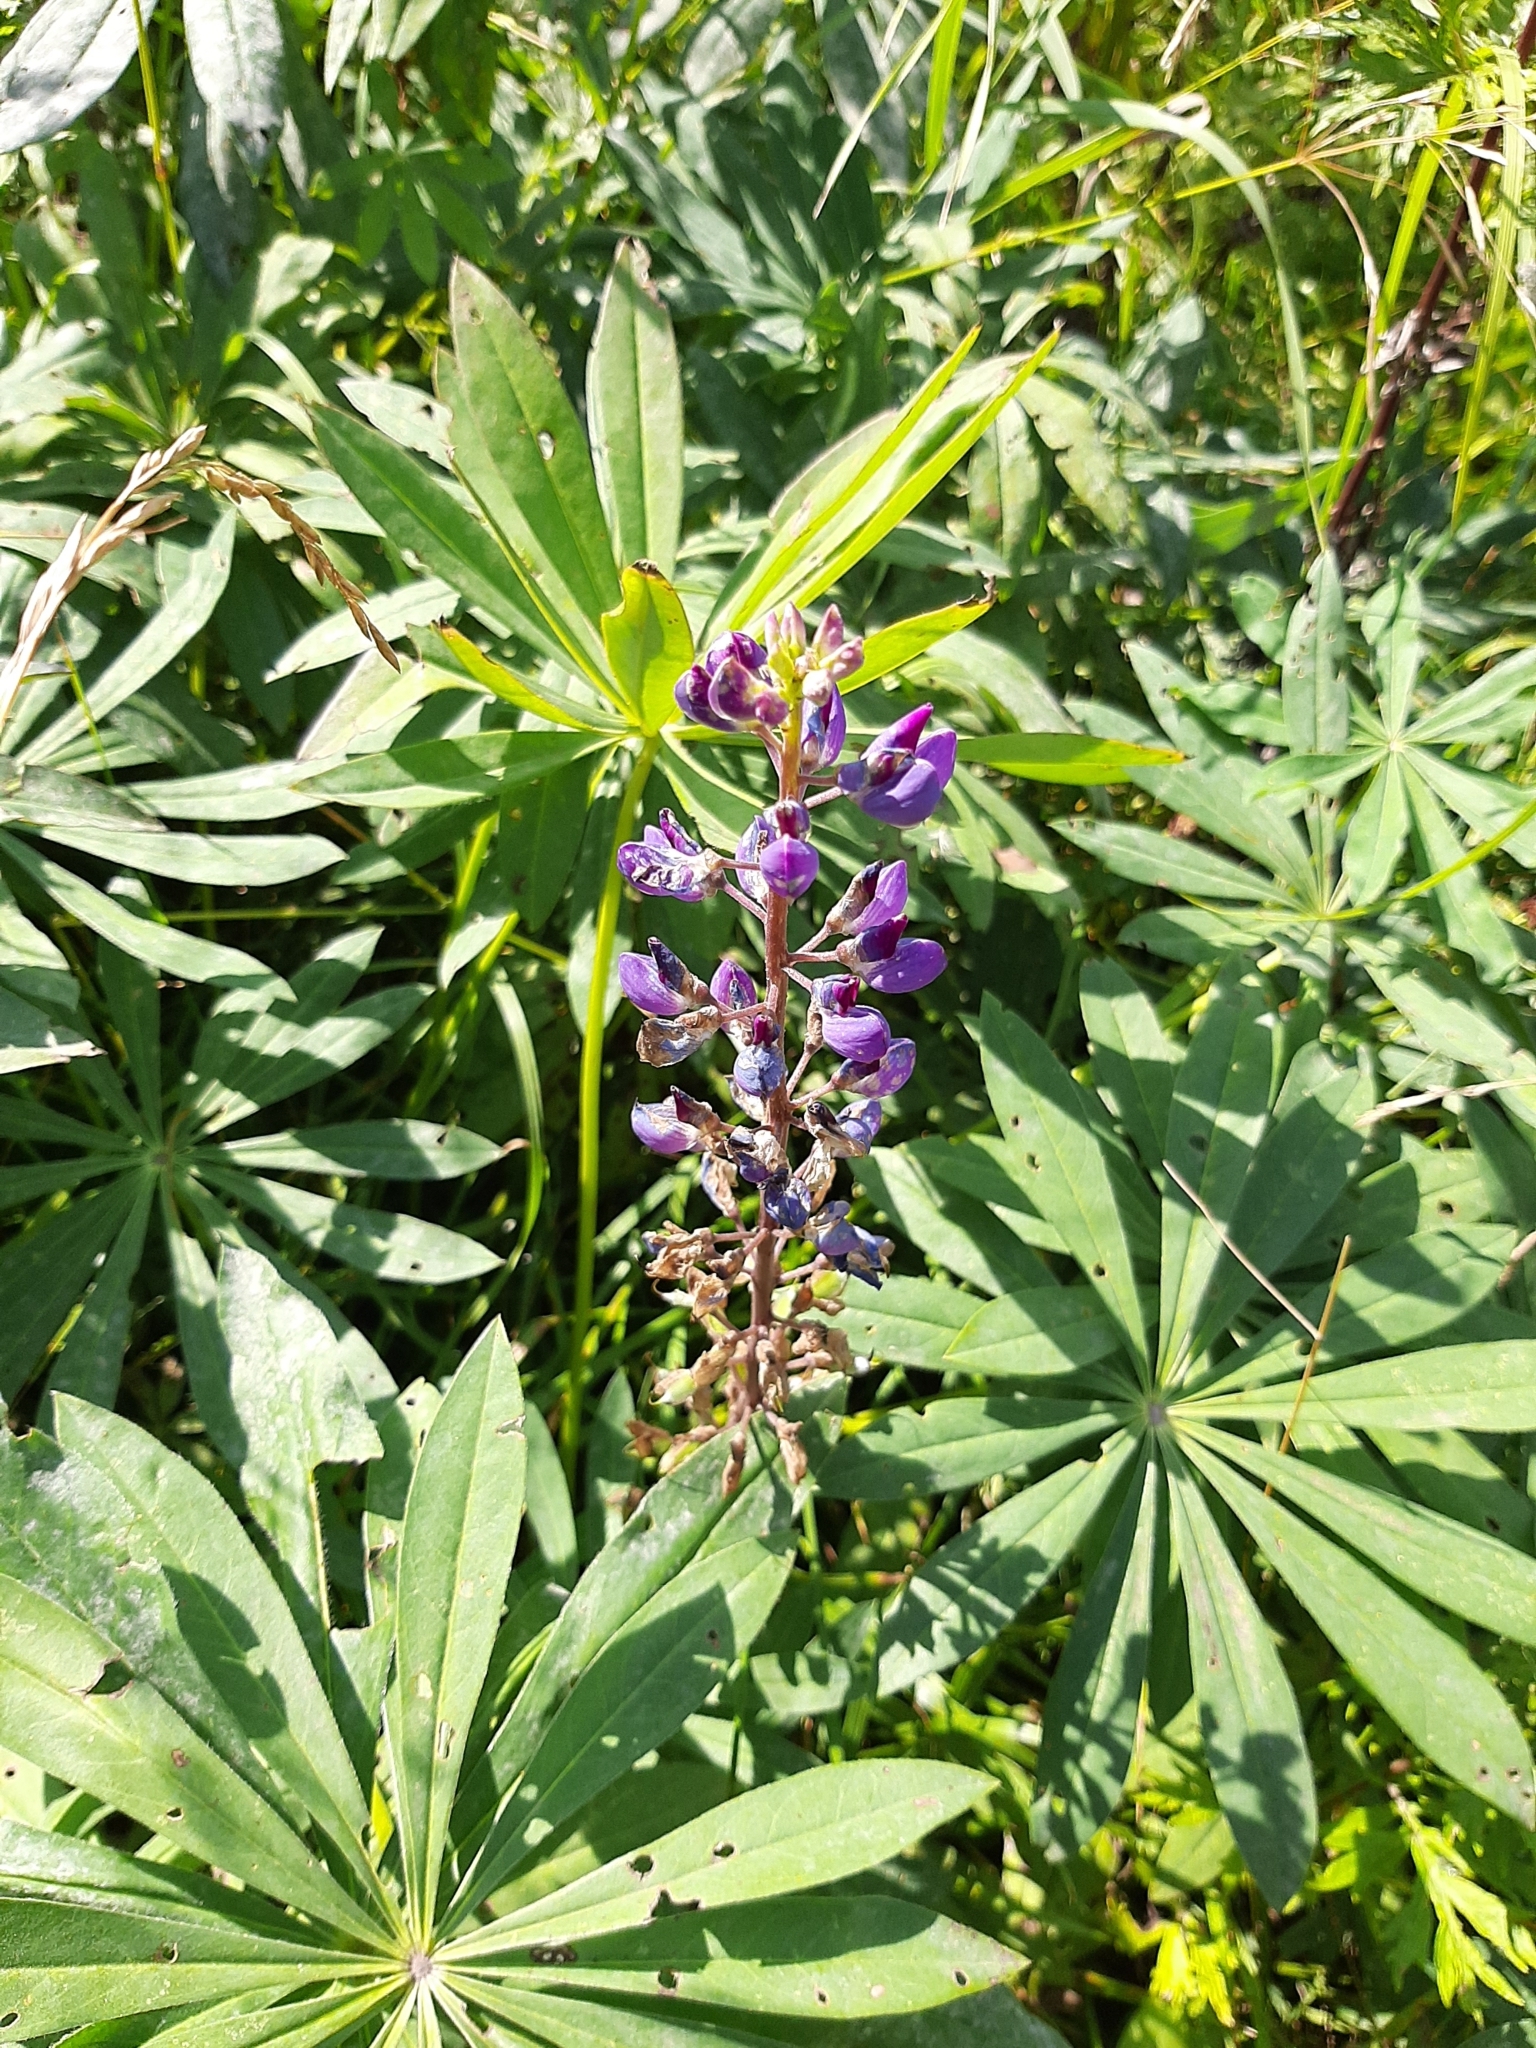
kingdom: Plantae
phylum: Tracheophyta
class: Magnoliopsida
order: Fabales
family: Fabaceae
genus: Lupinus
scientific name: Lupinus polyphyllus
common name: Garden lupin
